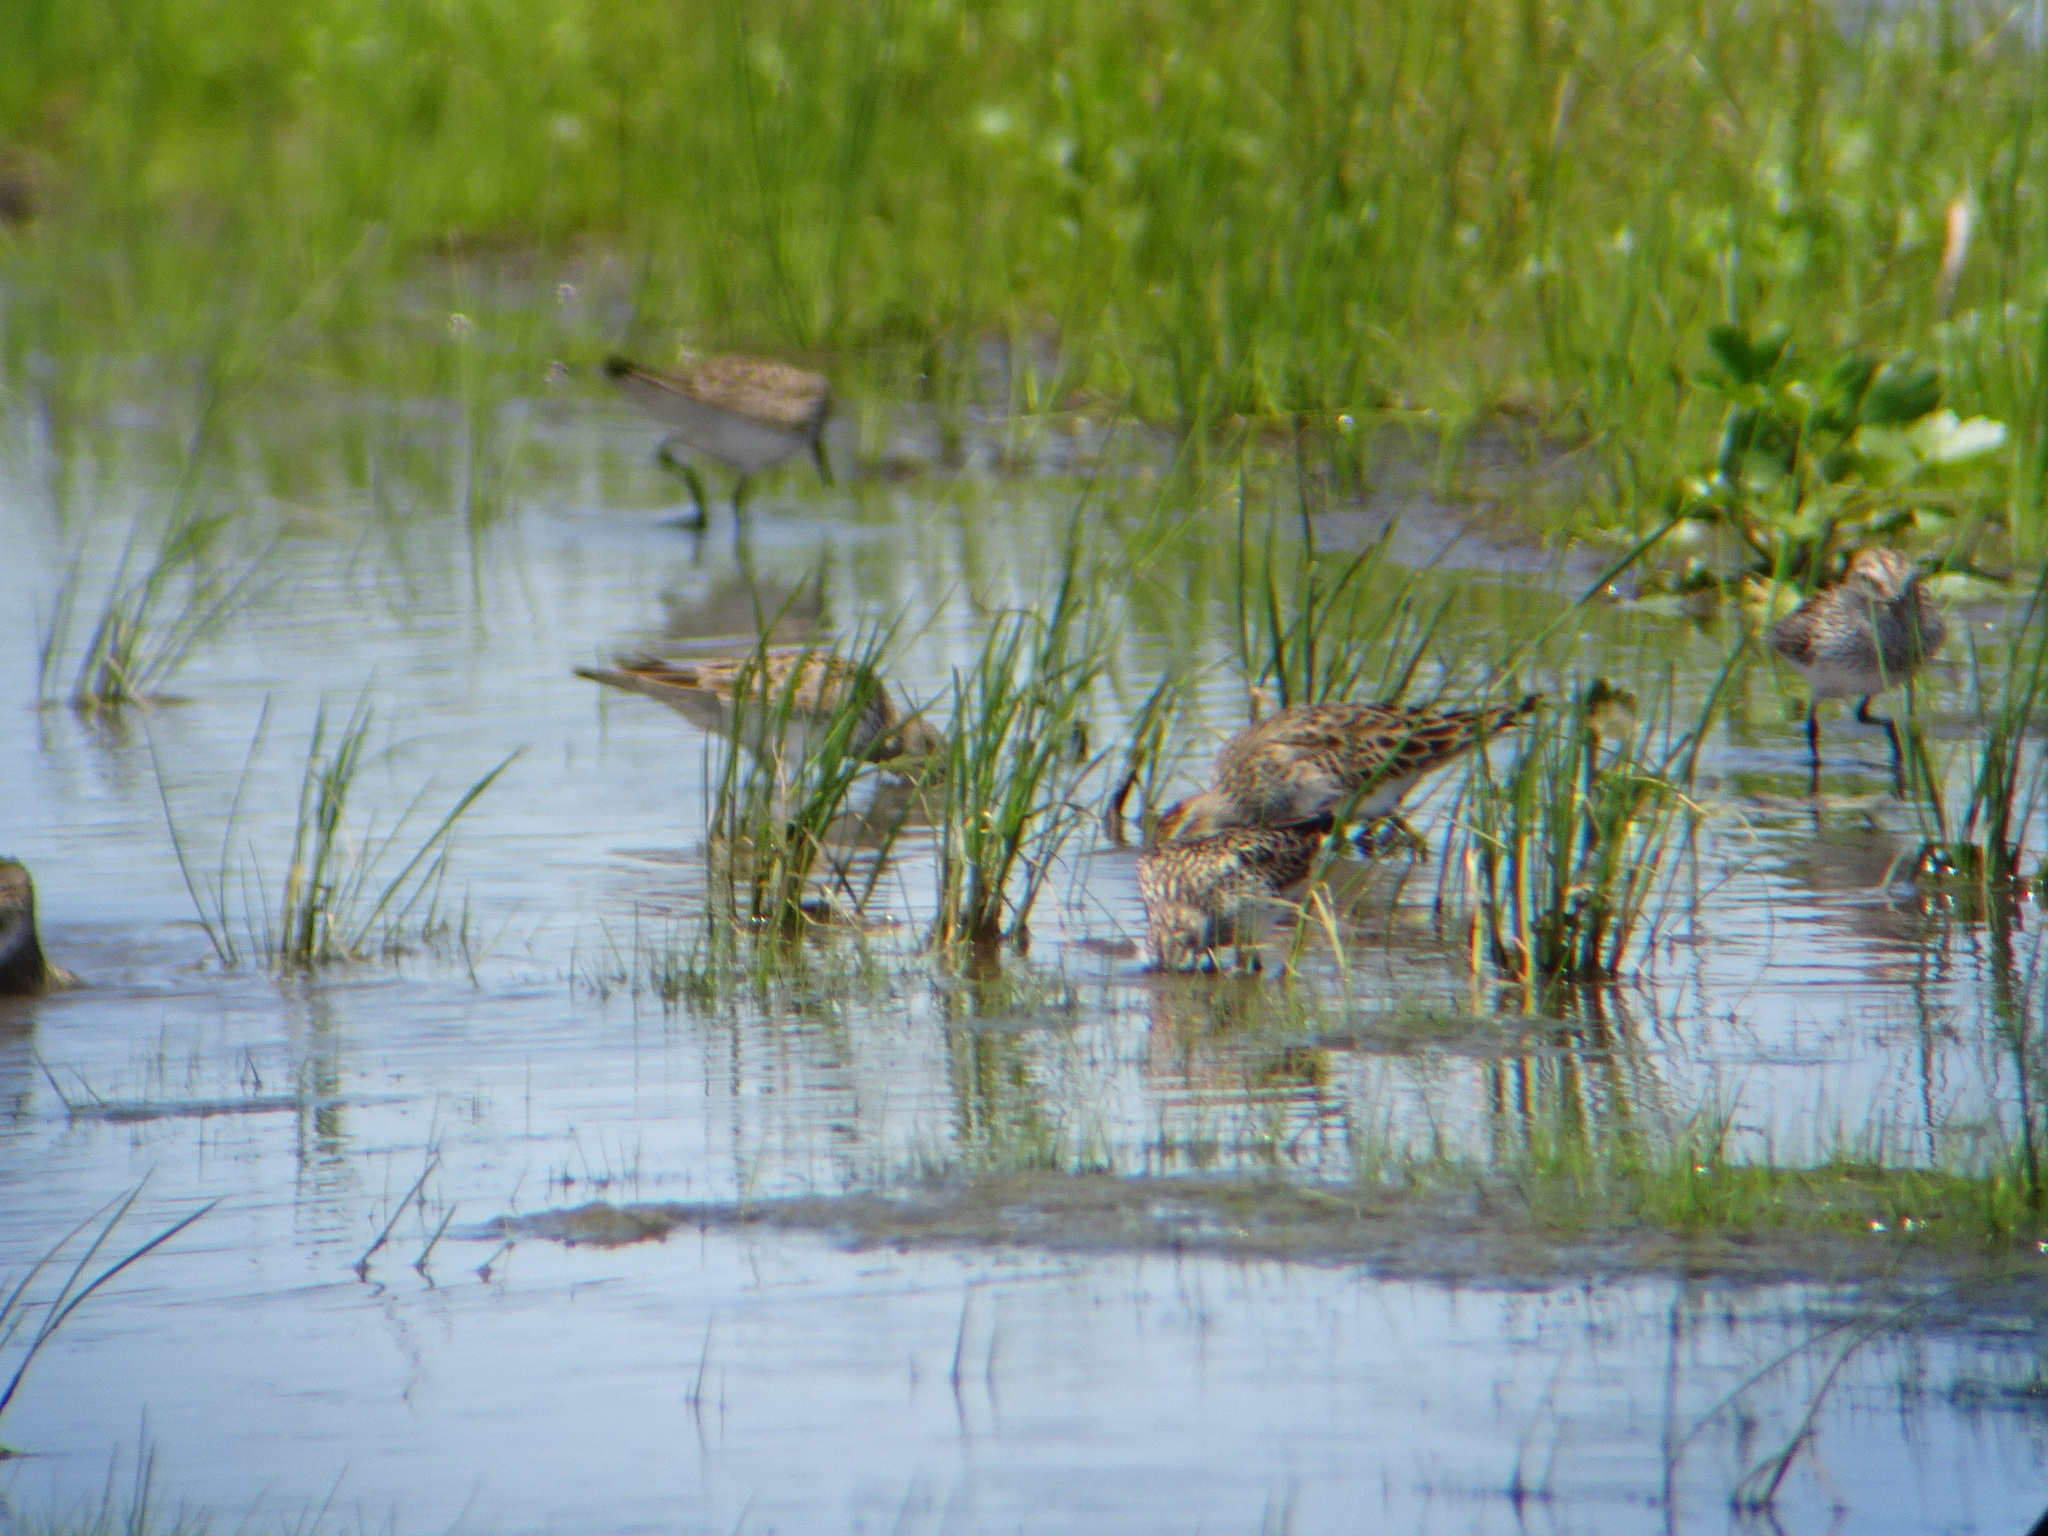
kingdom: Animalia
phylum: Chordata
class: Aves
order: Charadriiformes
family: Scolopacidae
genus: Calidris
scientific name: Calidris fuscicollis
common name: White-rumped sandpiper
